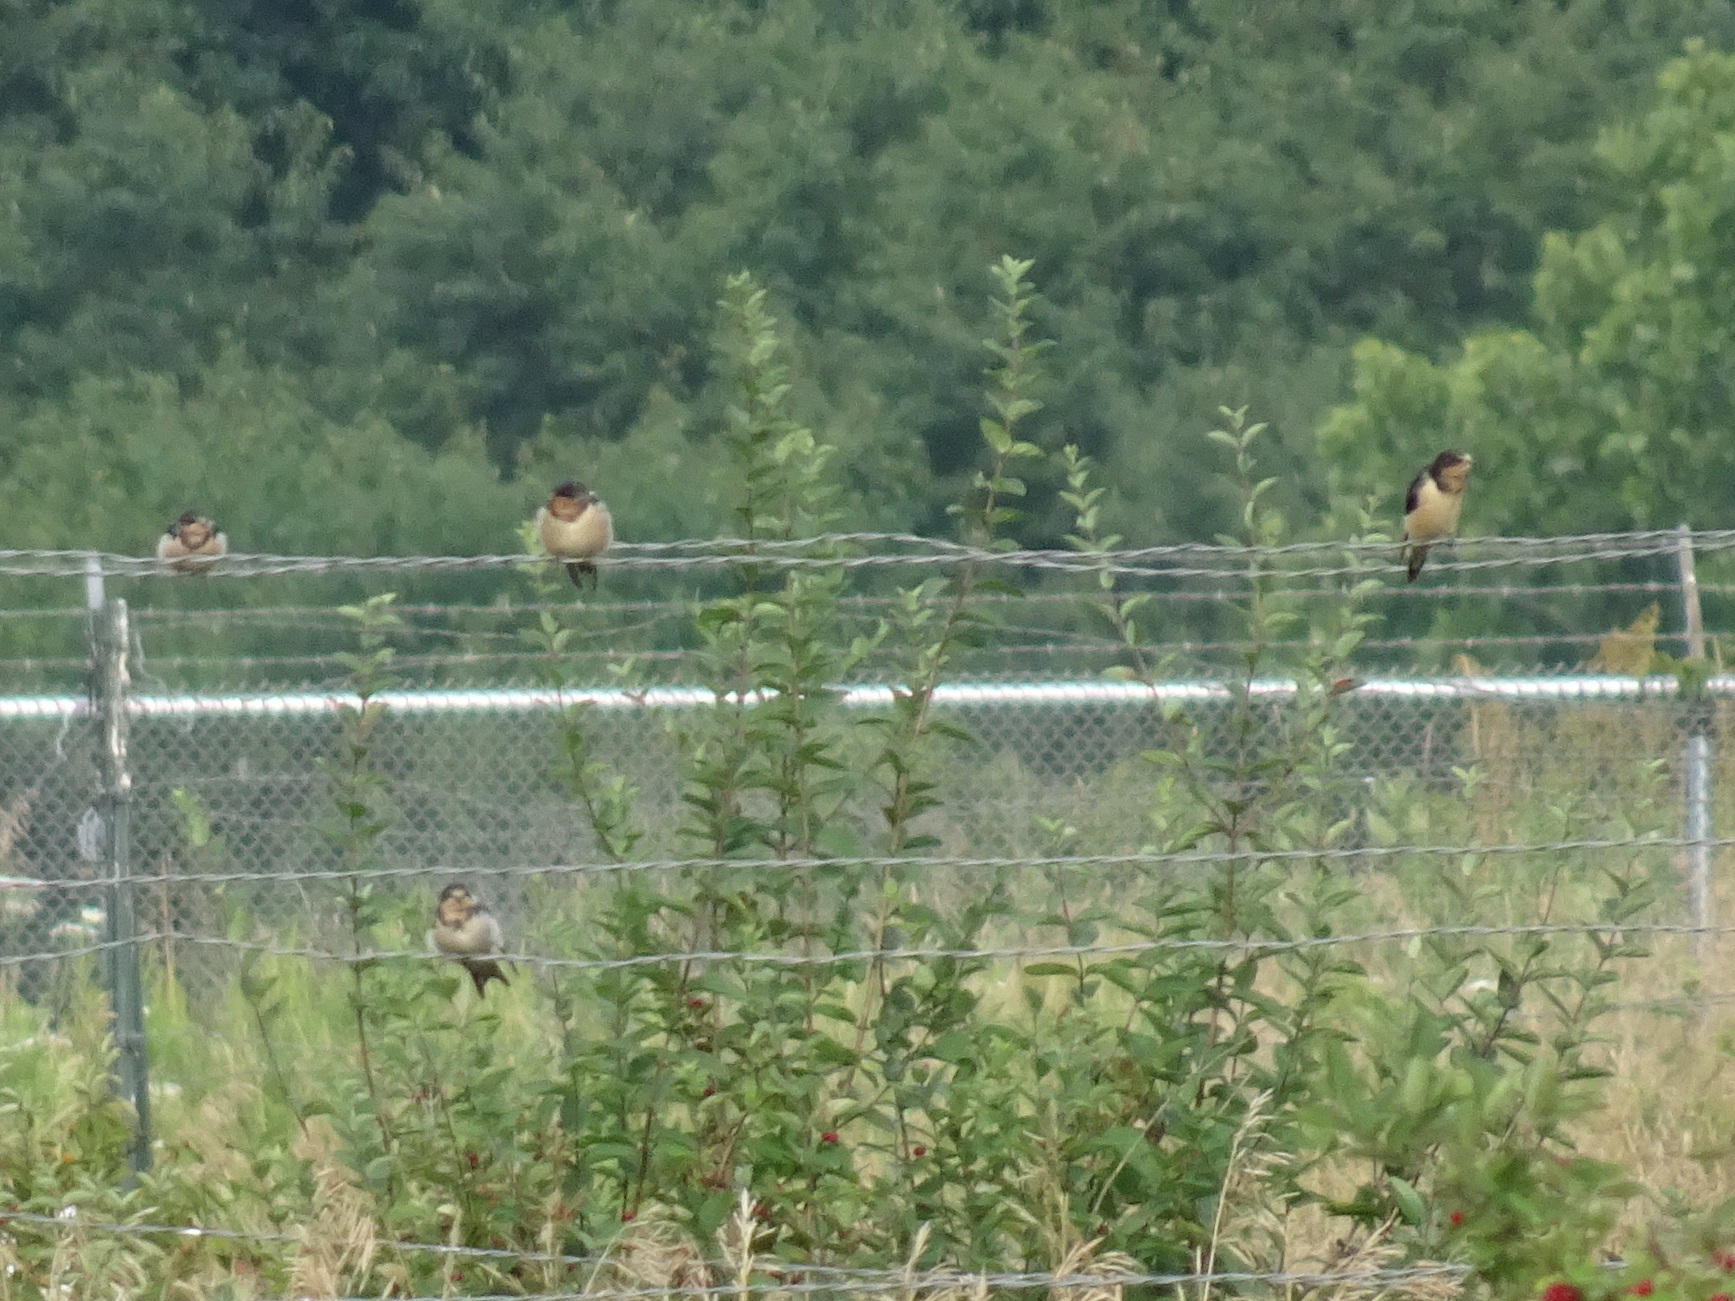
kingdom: Animalia
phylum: Chordata
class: Aves
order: Passeriformes
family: Hirundinidae
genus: Hirundo
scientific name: Hirundo rustica
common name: Barn swallow
